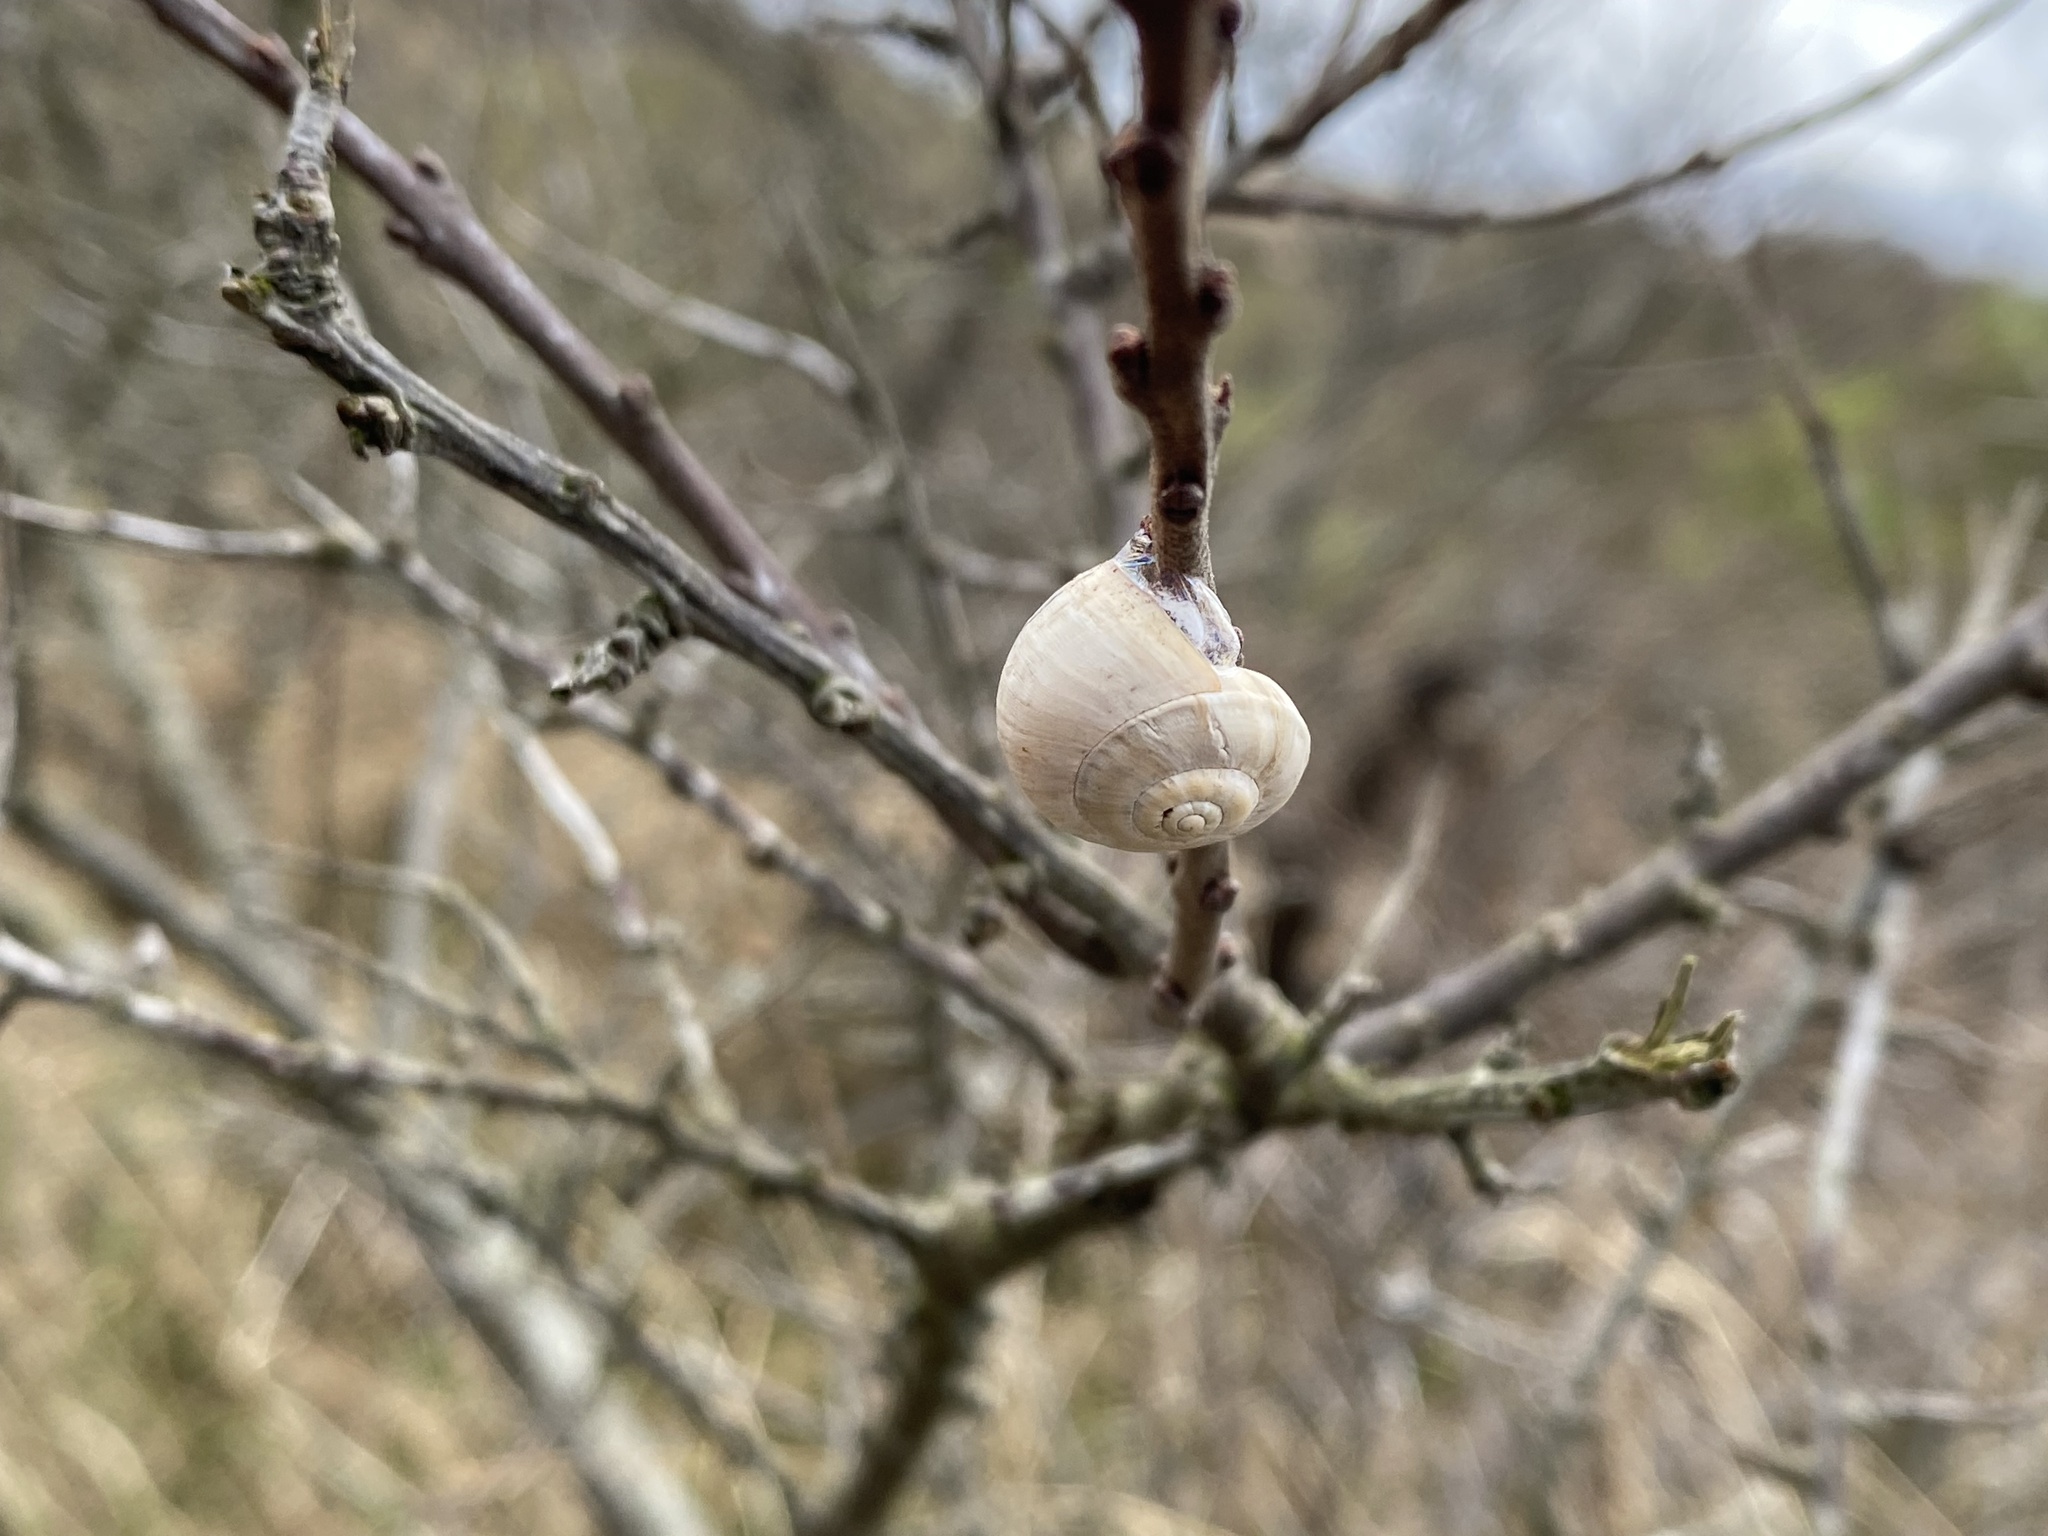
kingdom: Animalia
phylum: Mollusca
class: Gastropoda
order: Stylommatophora
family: Helicidae
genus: Theba
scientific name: Theba pisana
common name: White snail
